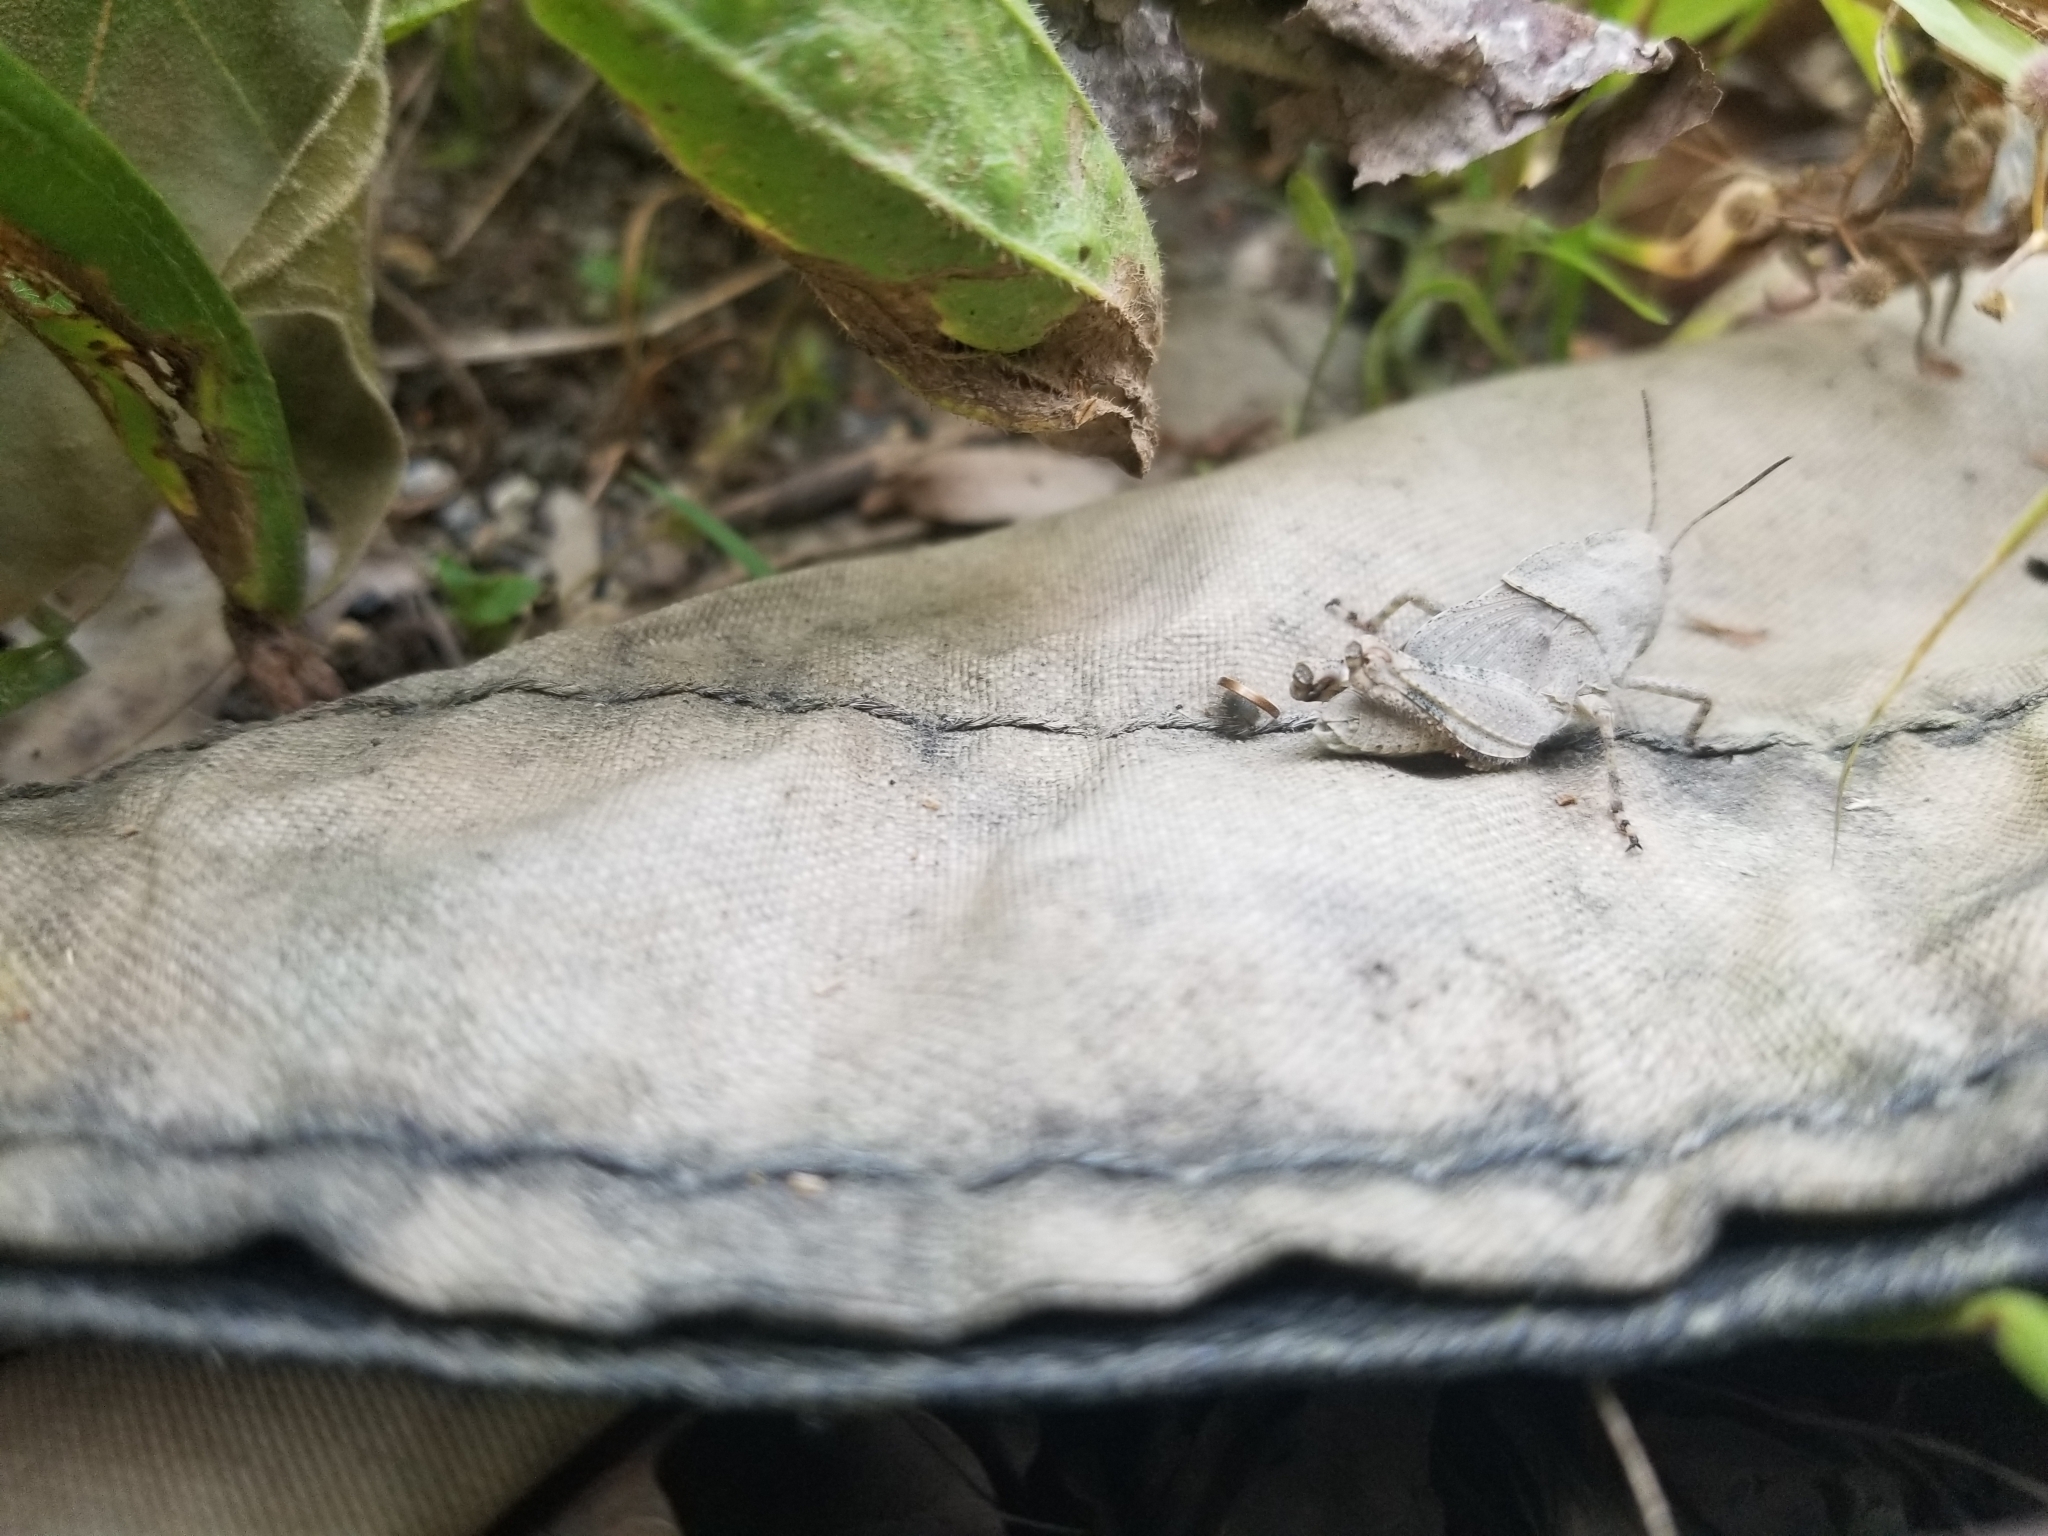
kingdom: Animalia
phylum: Arthropoda
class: Insecta
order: Orthoptera
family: Acrididae
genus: Dissosteira
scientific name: Dissosteira carolina
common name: Carolina grasshopper
